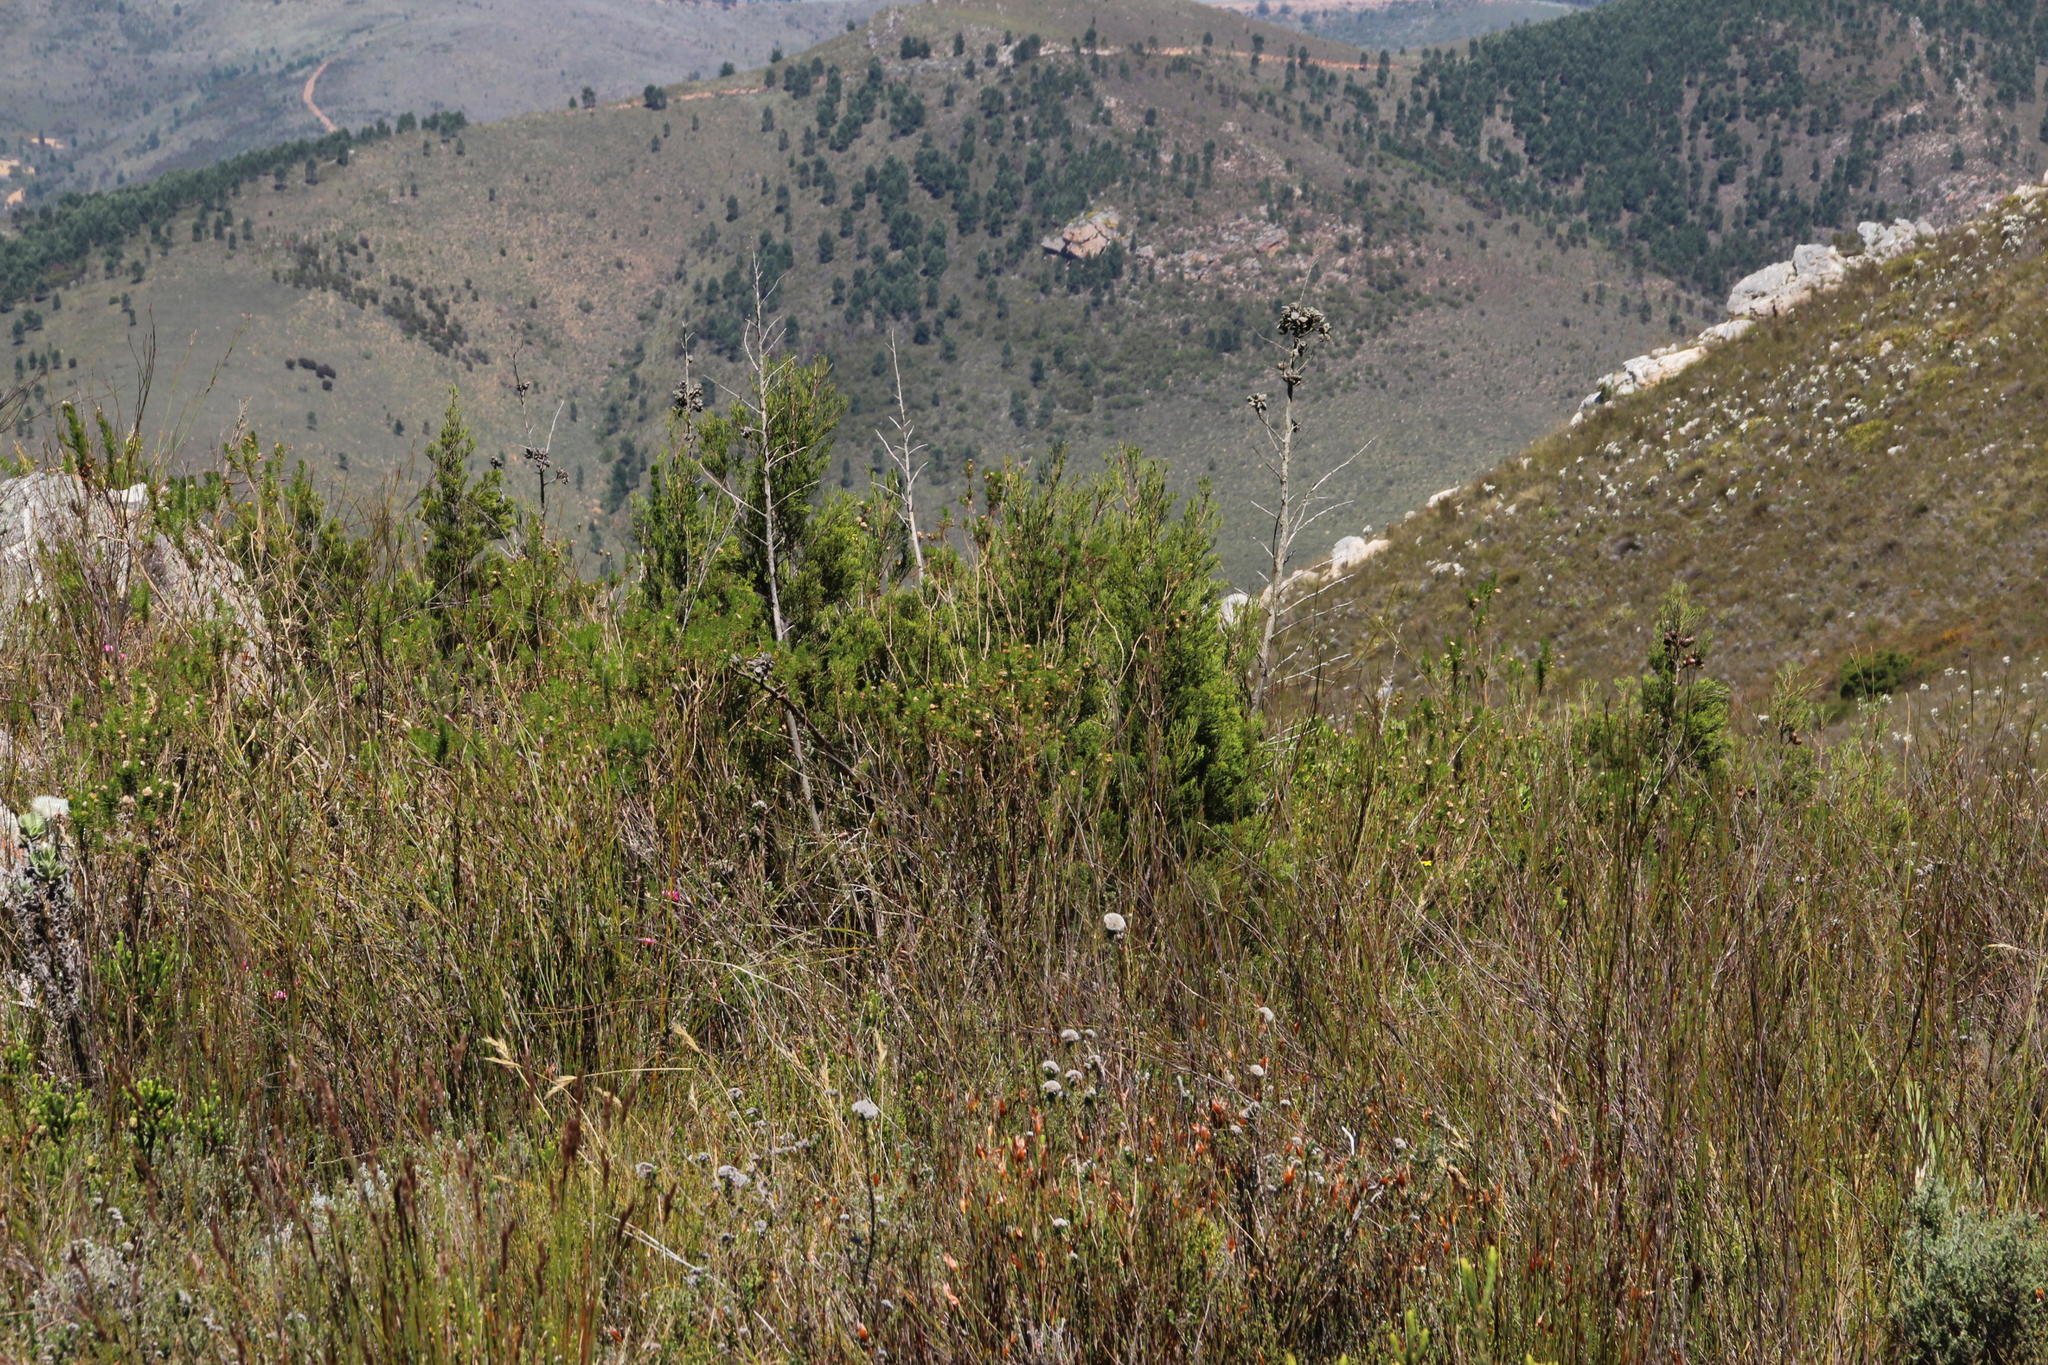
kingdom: Plantae
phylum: Tracheophyta
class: Pinopsida
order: Pinales
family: Cupressaceae
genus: Widdringtonia
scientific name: Widdringtonia nodiflora
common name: Cape cypress
